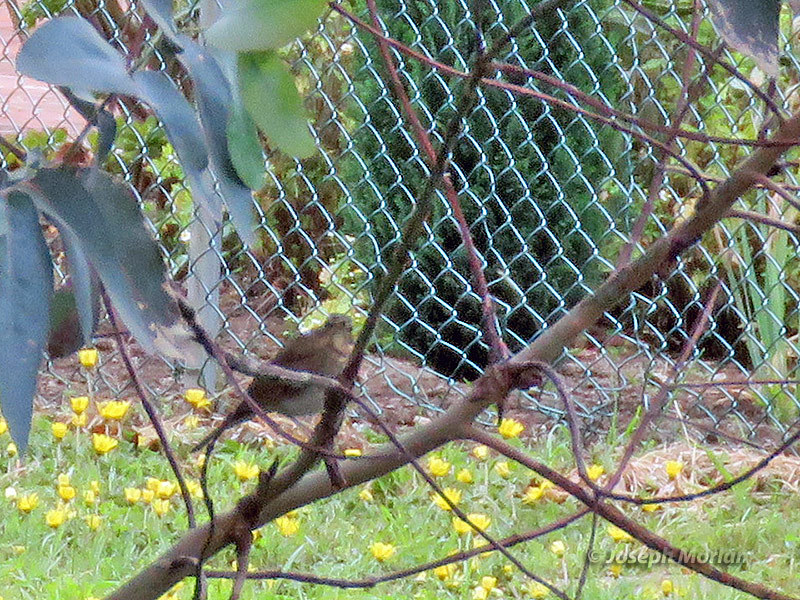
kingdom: Animalia
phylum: Chordata
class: Aves
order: Passeriformes
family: Turdidae
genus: Catharus
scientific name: Catharus ustulatus
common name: Swainson's thrush
